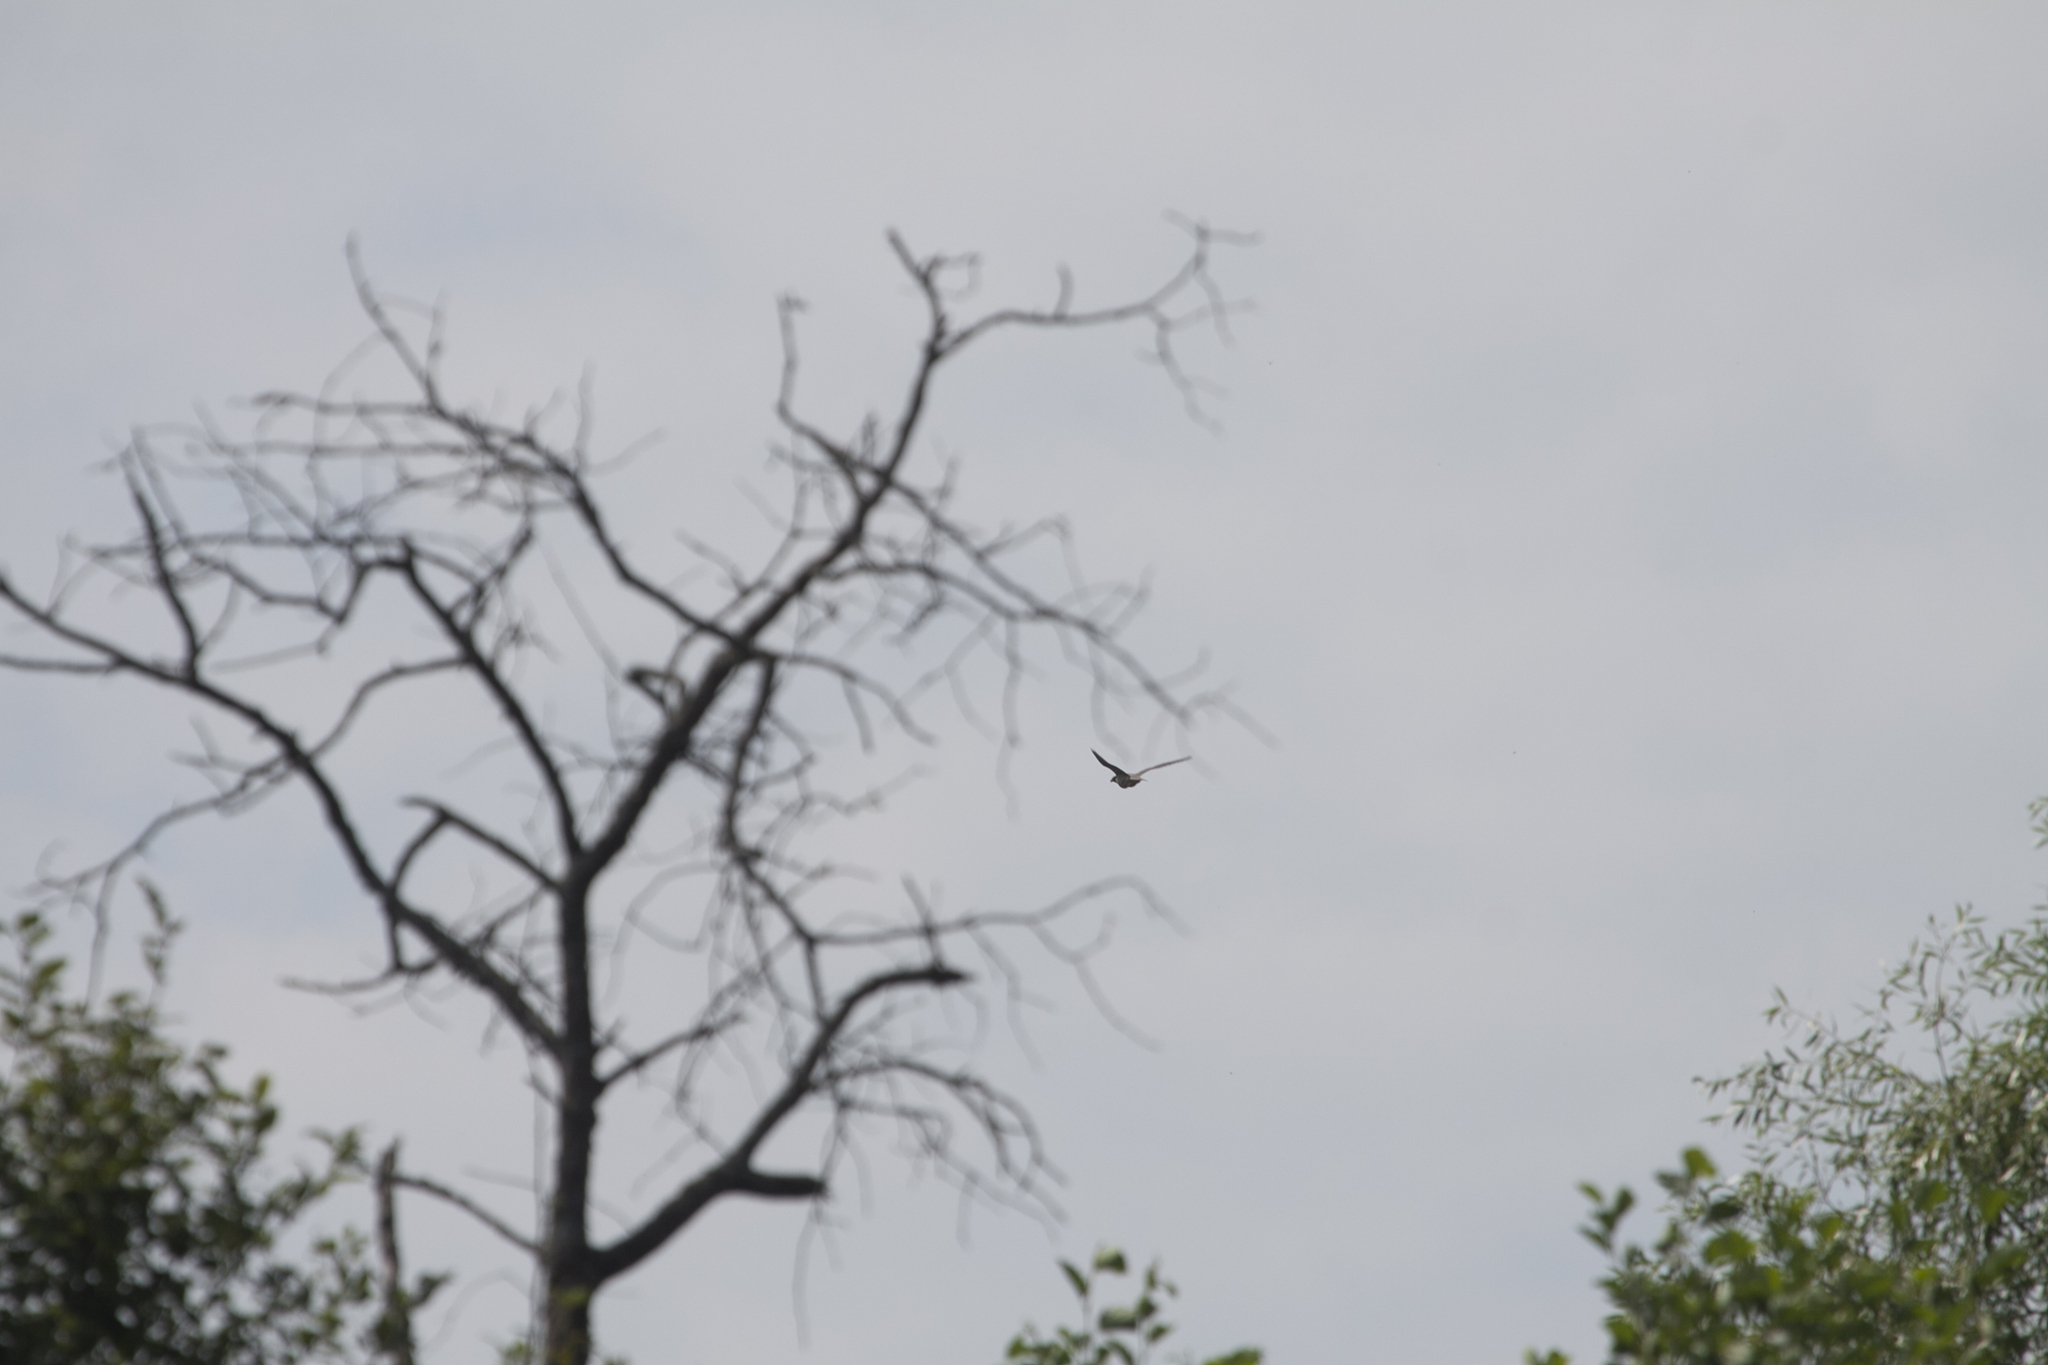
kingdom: Animalia
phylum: Chordata
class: Aves
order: Falconiformes
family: Falconidae
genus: Falco
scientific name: Falco peregrinus
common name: Peregrine falcon
